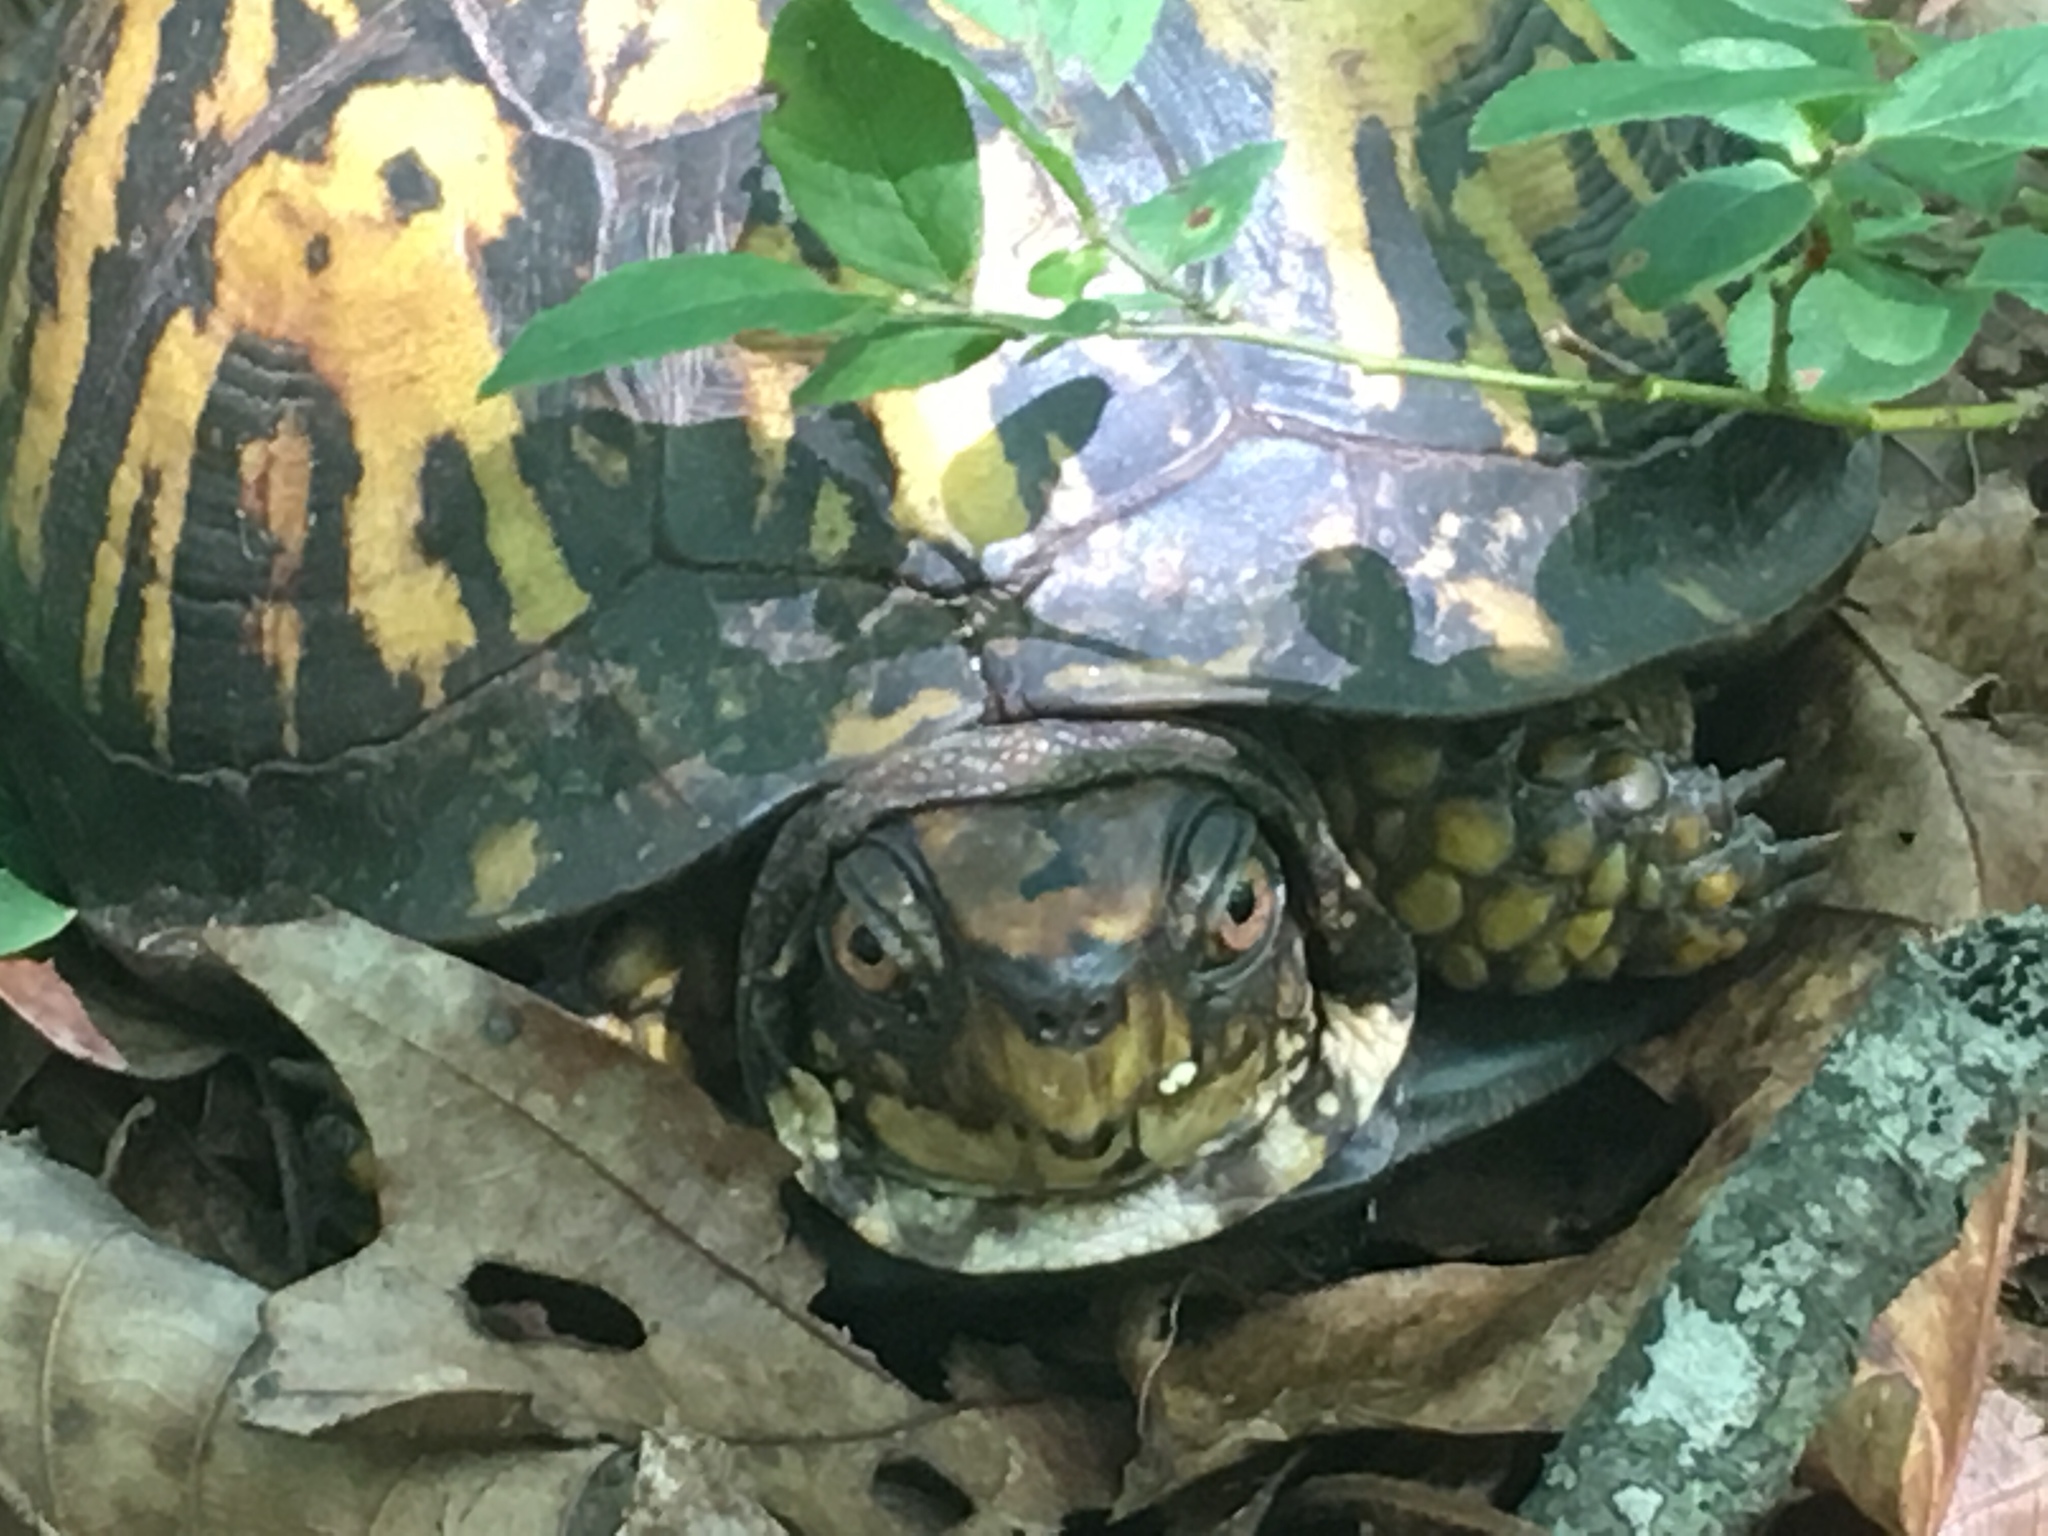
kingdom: Animalia
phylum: Chordata
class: Testudines
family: Emydidae
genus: Terrapene
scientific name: Terrapene carolina
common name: Common box turtle
